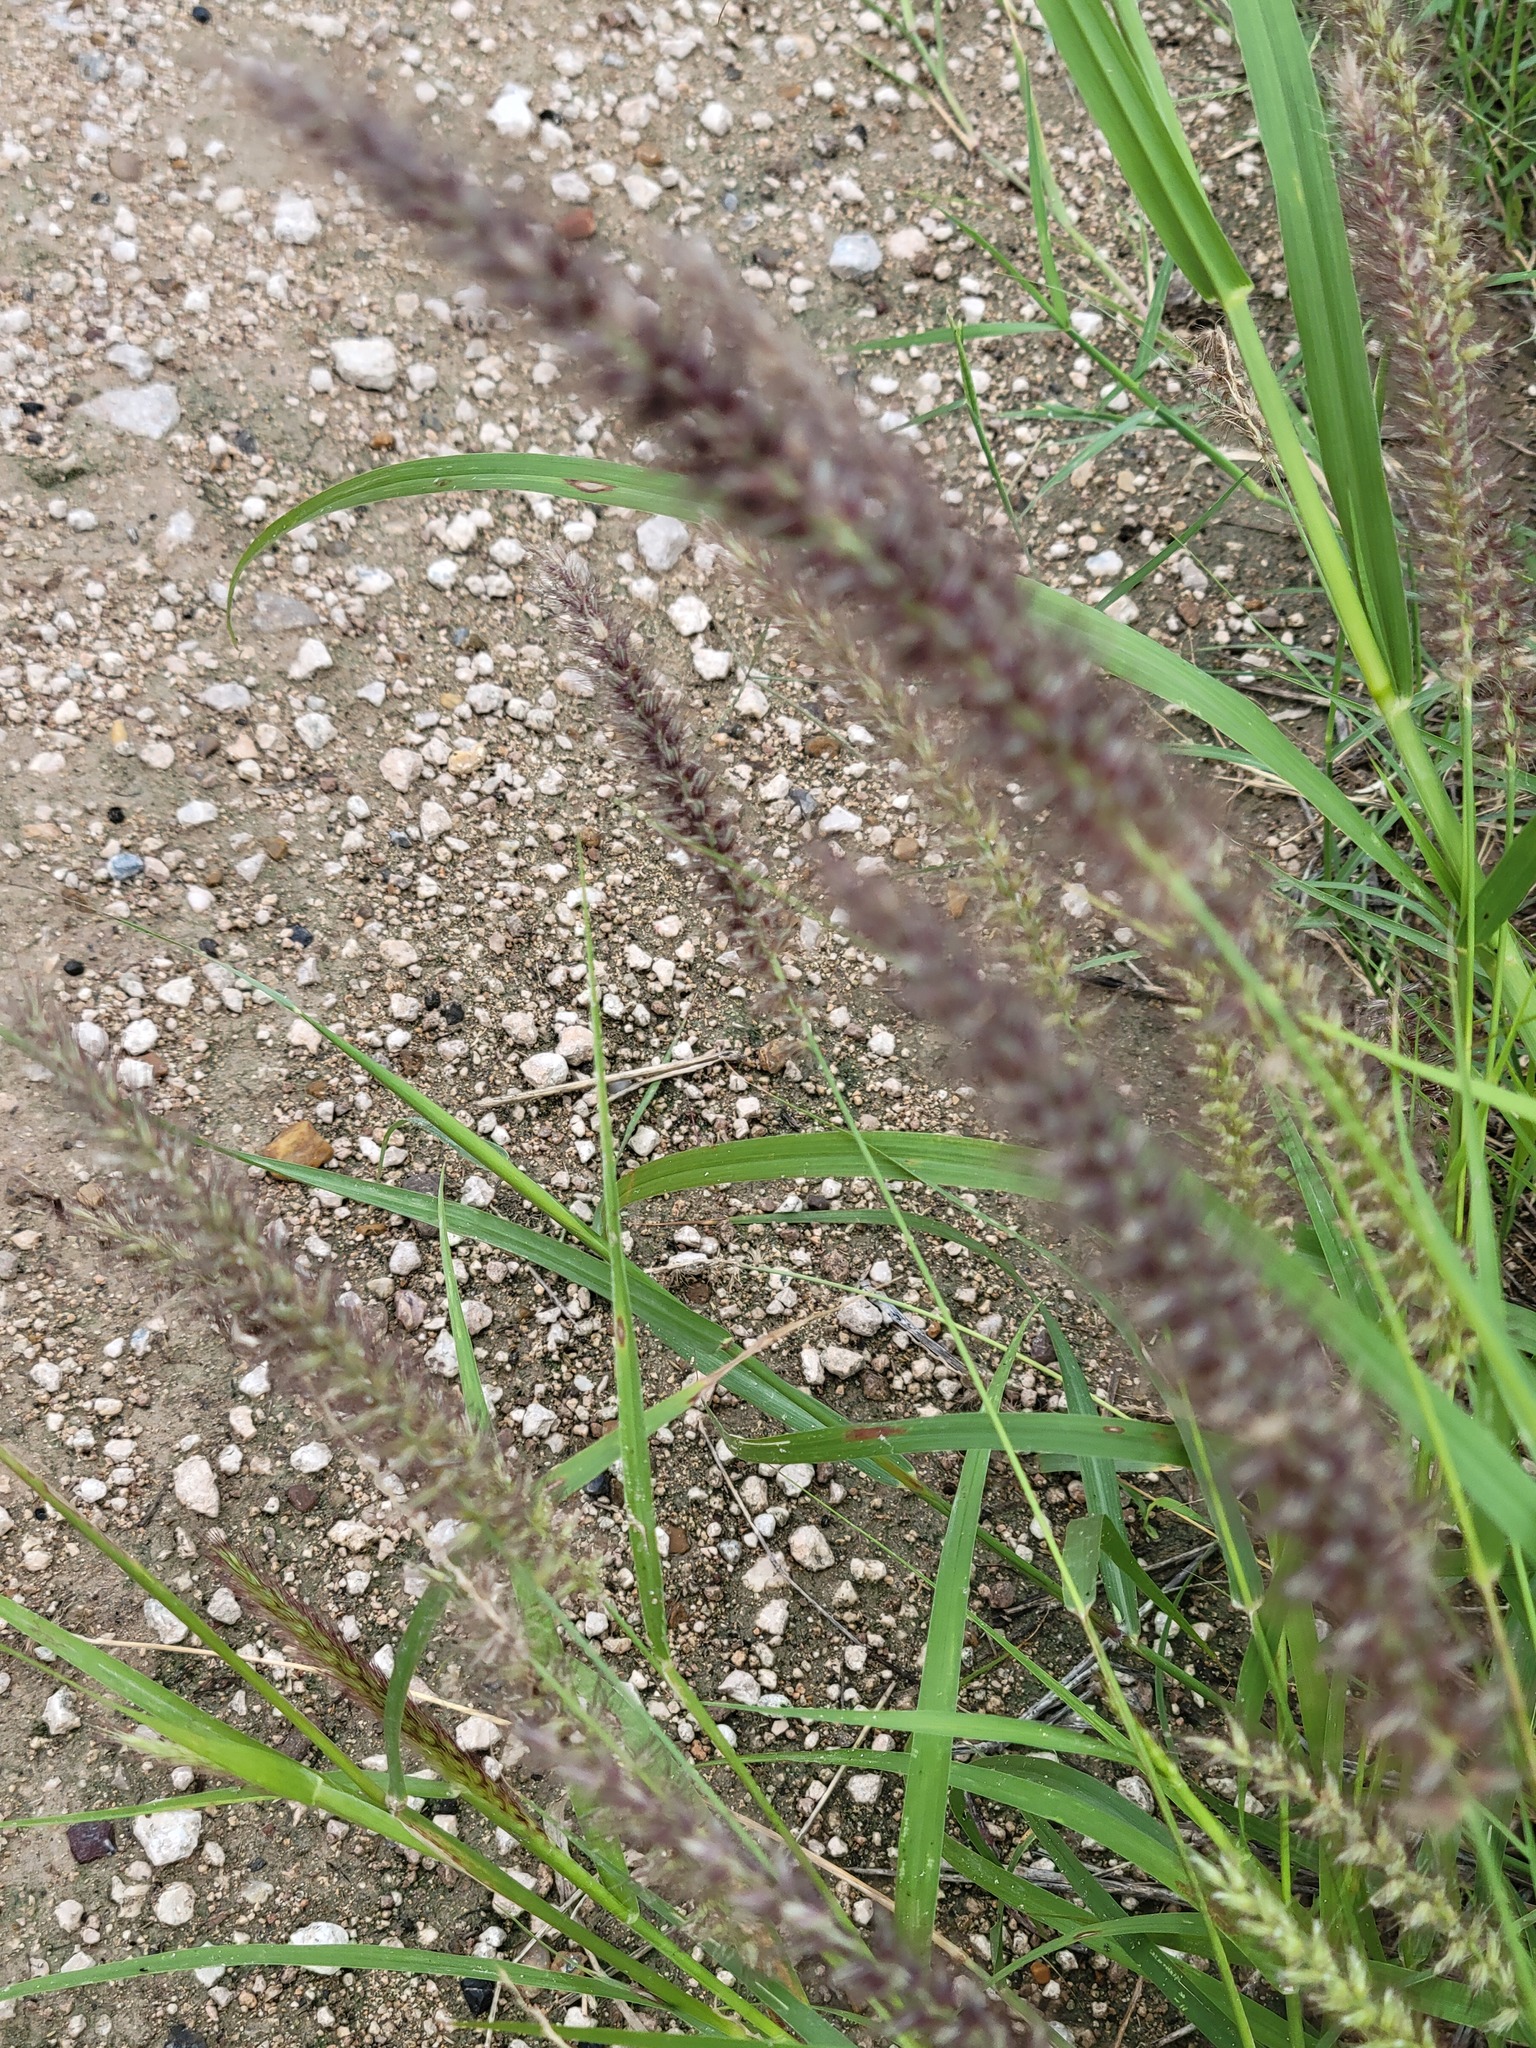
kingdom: Plantae
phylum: Tracheophyta
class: Liliopsida
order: Poales
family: Poaceae
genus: Cenchrus
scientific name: Cenchrus ciliaris
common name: Buffelgrass
